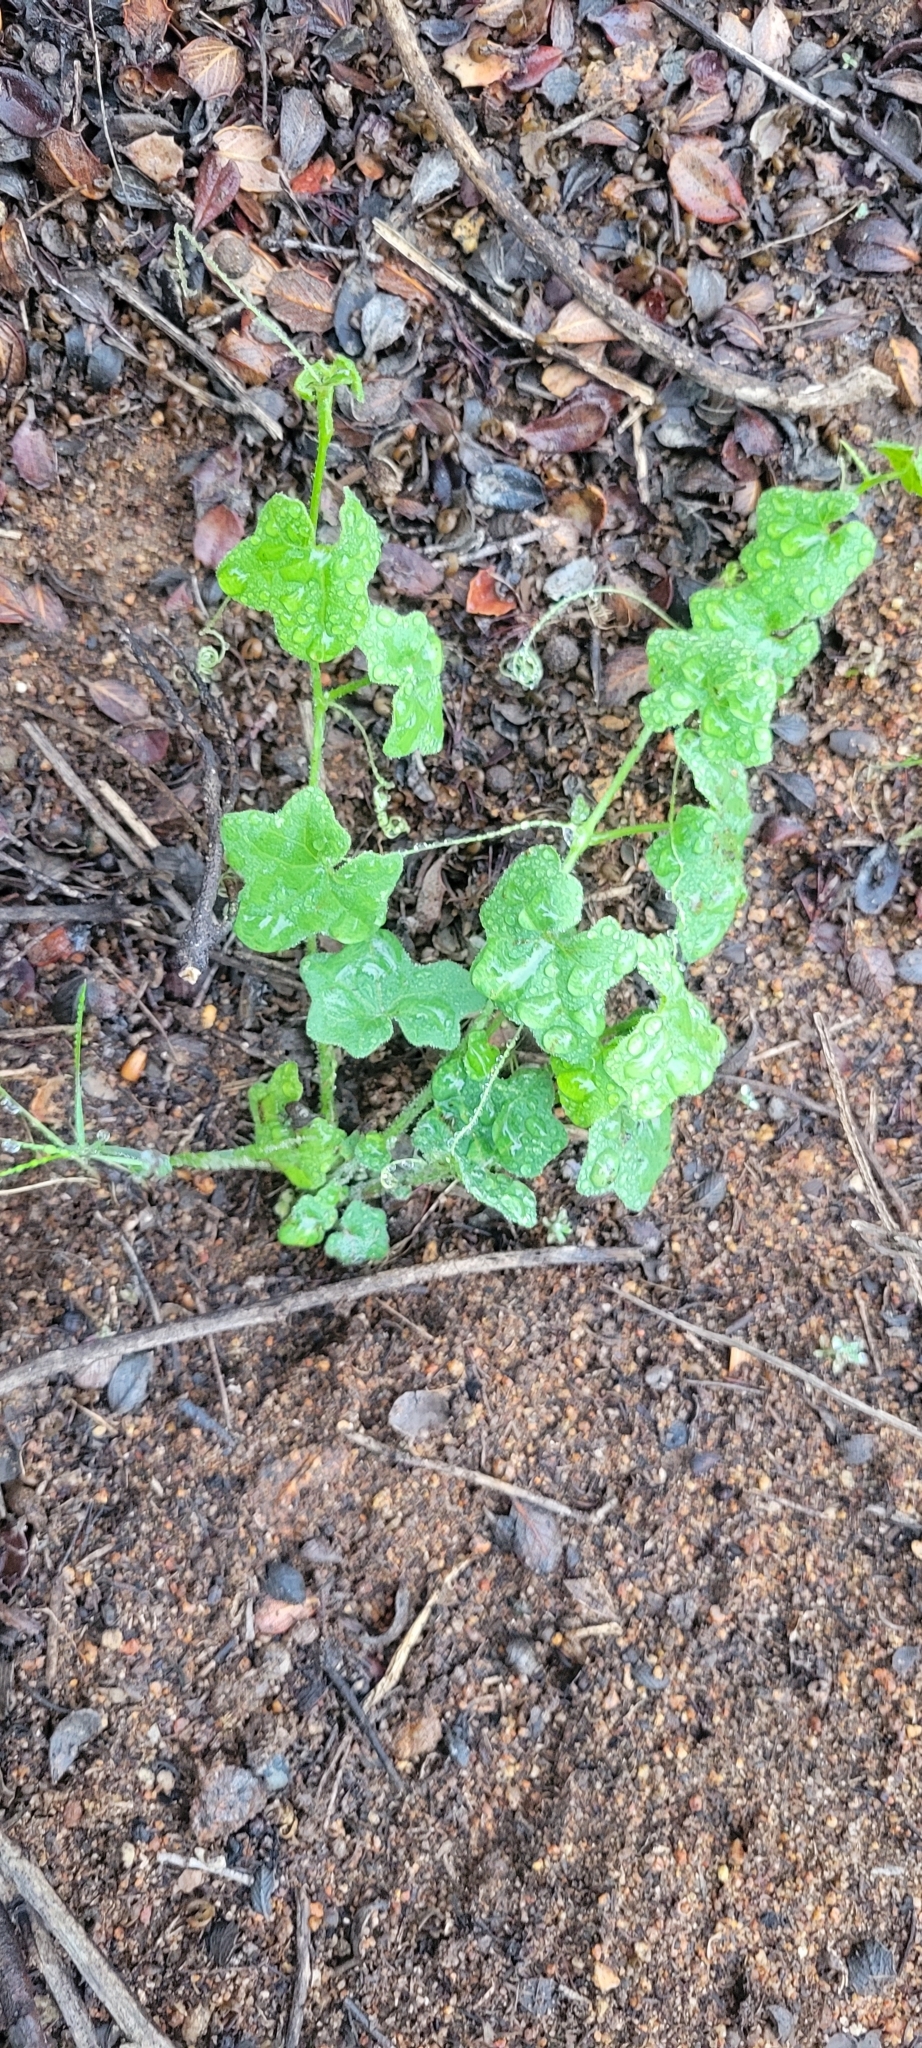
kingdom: Plantae
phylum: Tracheophyta
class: Magnoliopsida
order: Cucurbitales
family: Cucurbitaceae
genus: Marah
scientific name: Marah macrocarpa
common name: Cucamonga manroot
